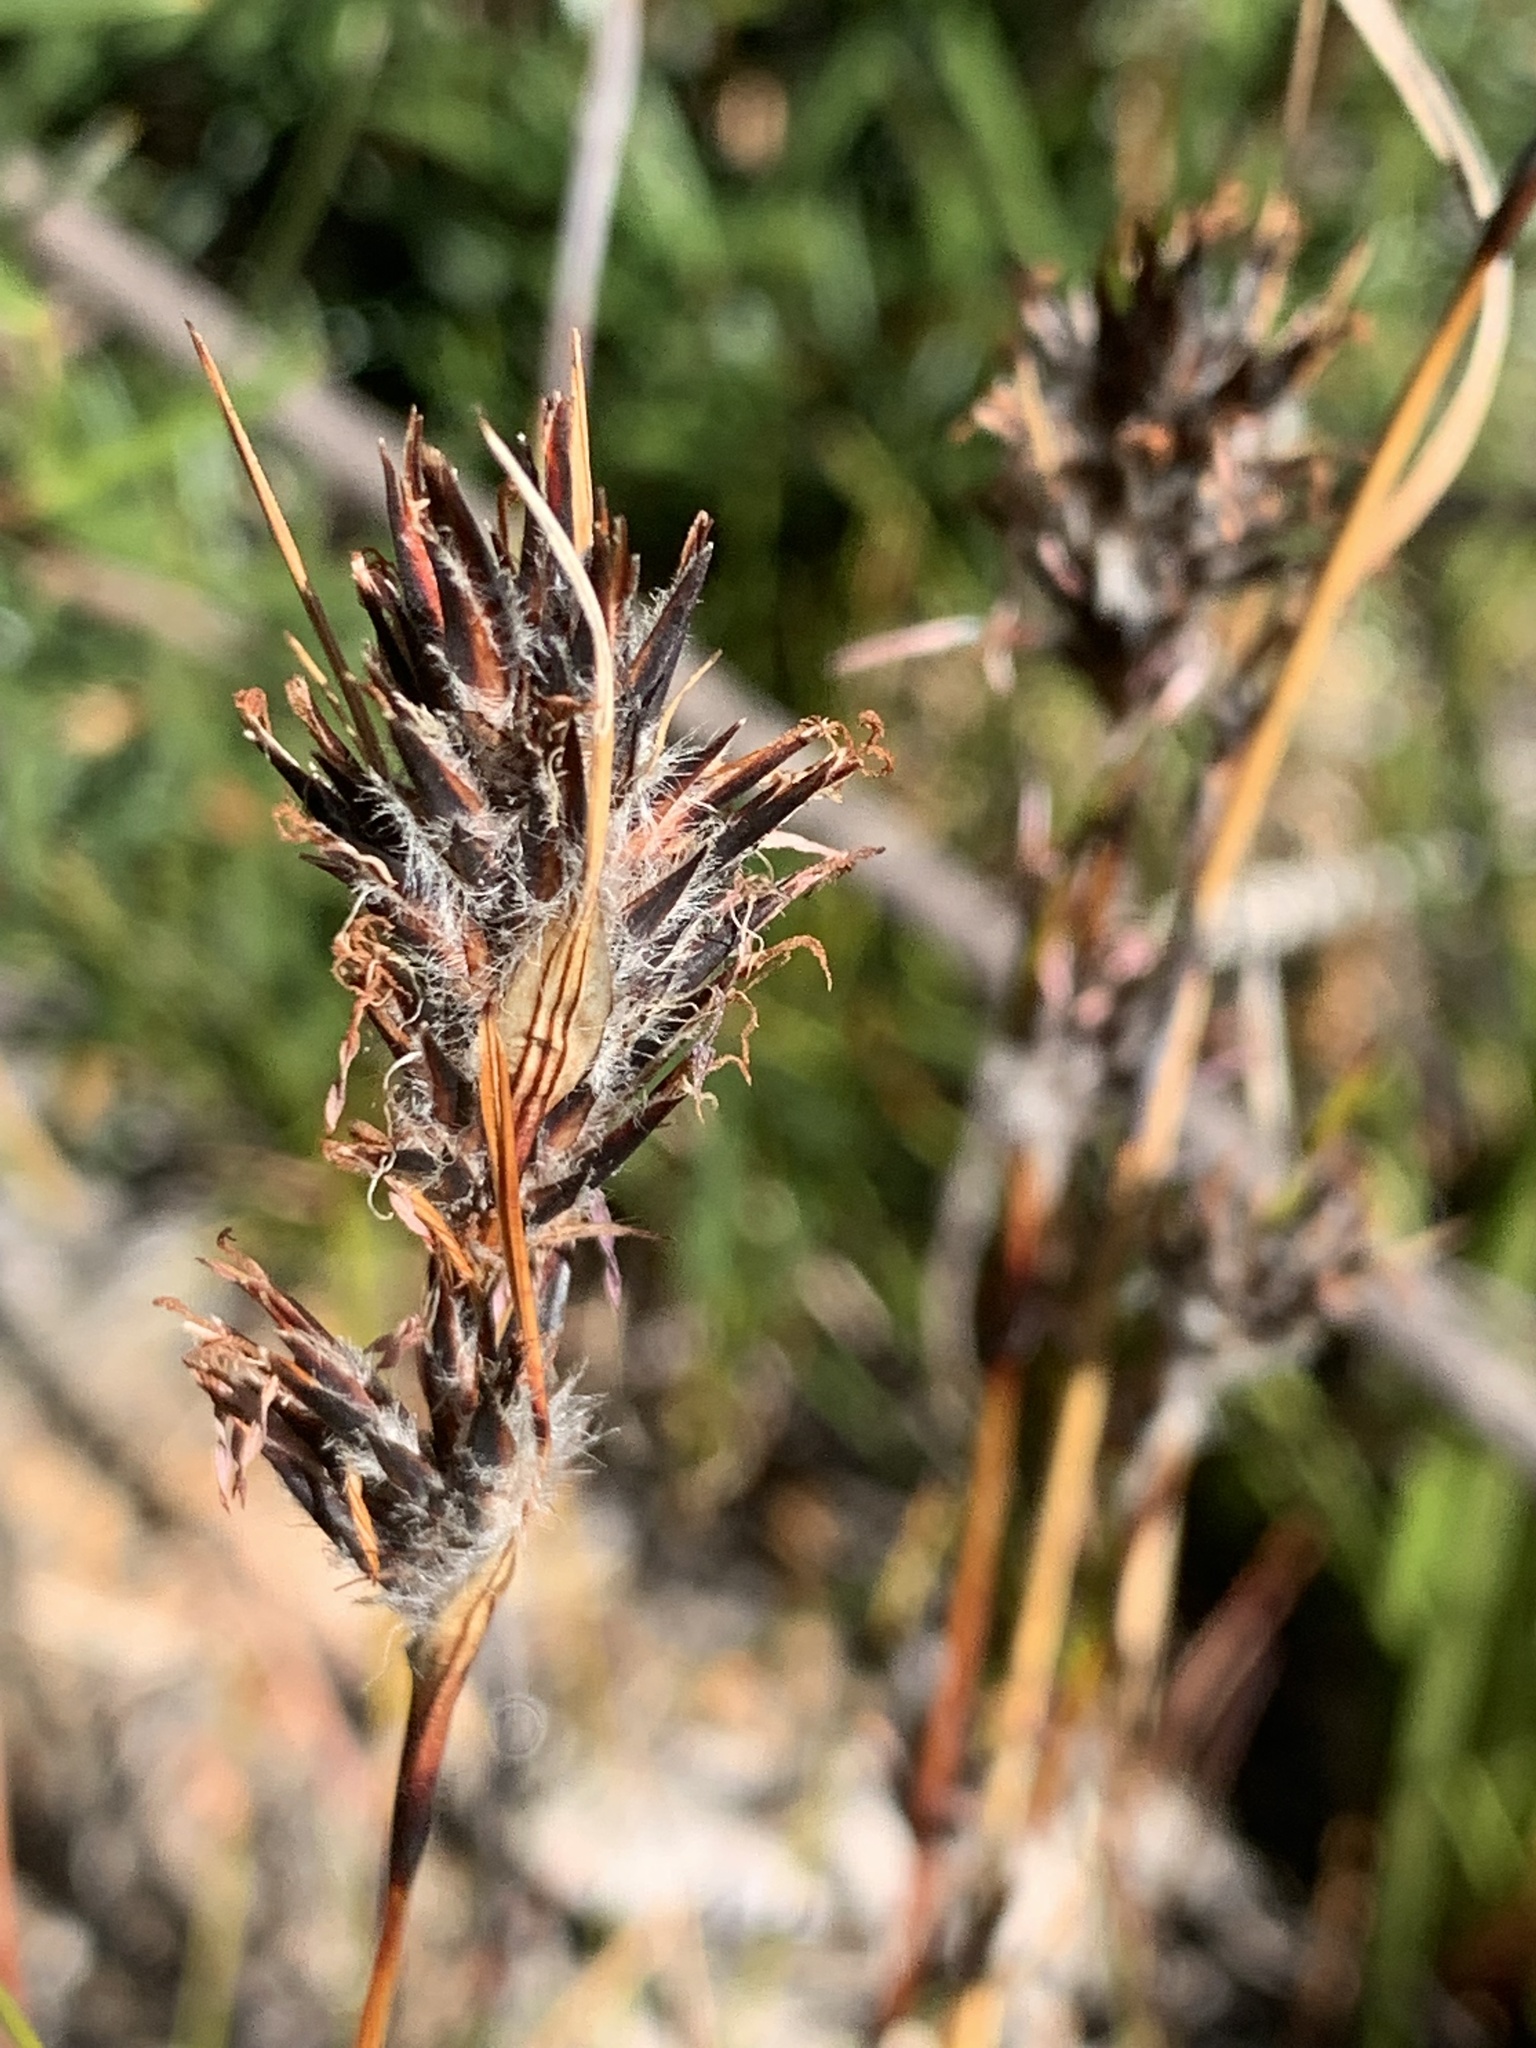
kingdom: Plantae
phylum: Tracheophyta
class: Liliopsida
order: Poales
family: Cyperaceae
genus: Schoenus
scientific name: Schoenus villosus
